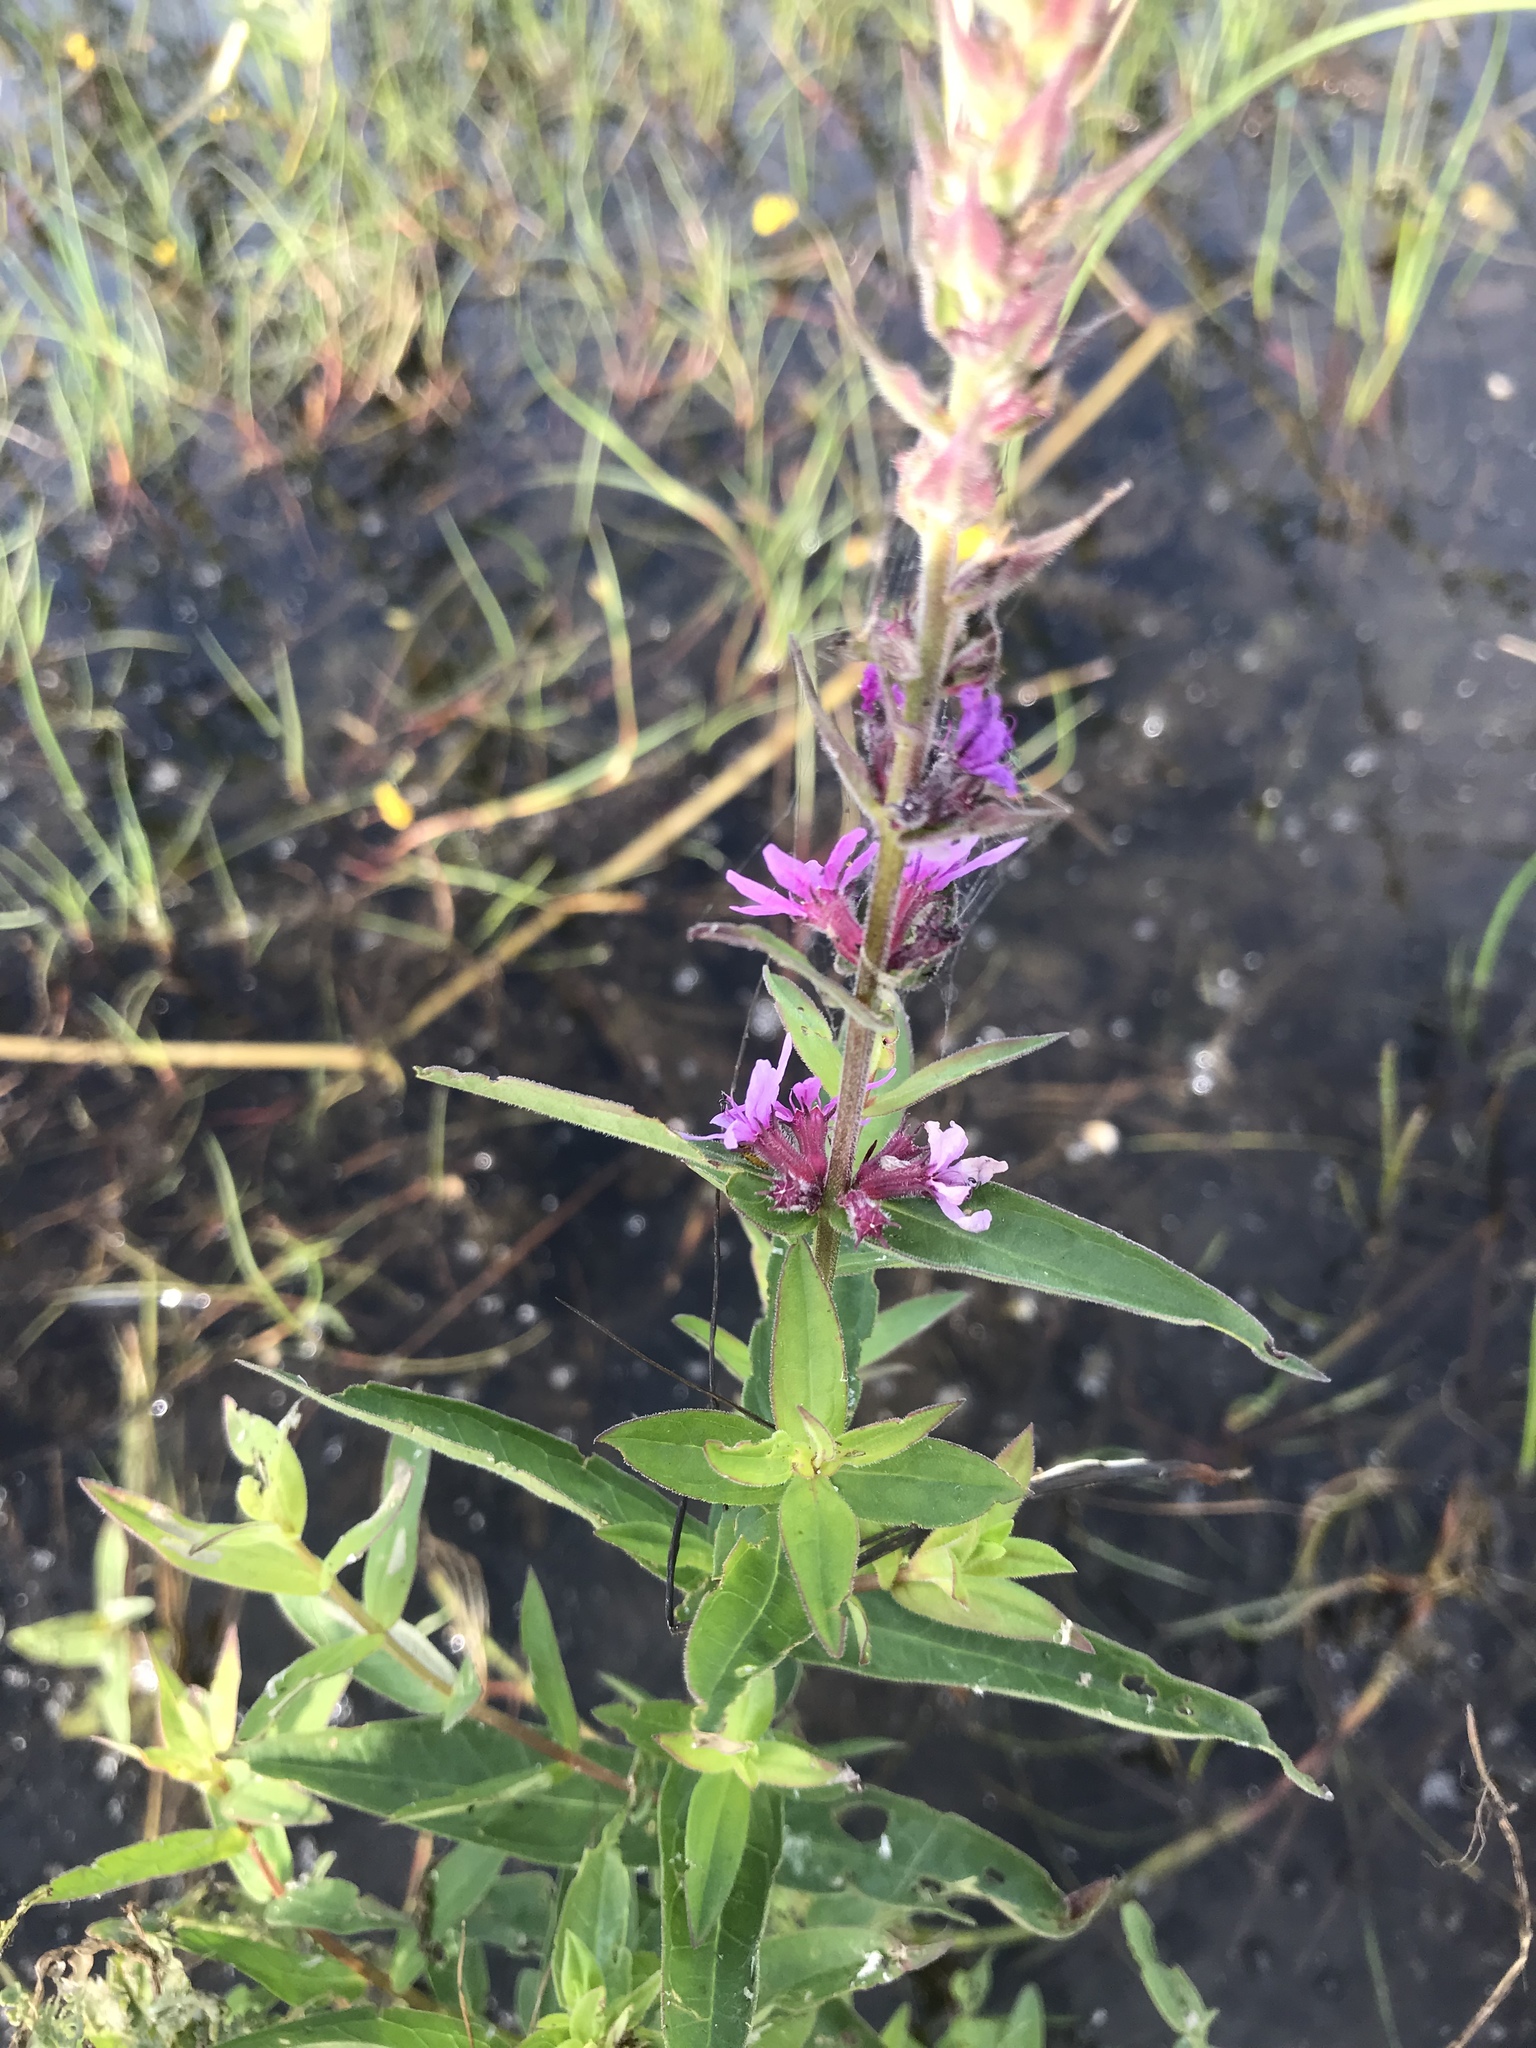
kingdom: Plantae
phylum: Tracheophyta
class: Magnoliopsida
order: Myrtales
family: Lythraceae
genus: Lythrum
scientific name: Lythrum salicaria
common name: Purple loosestrife
